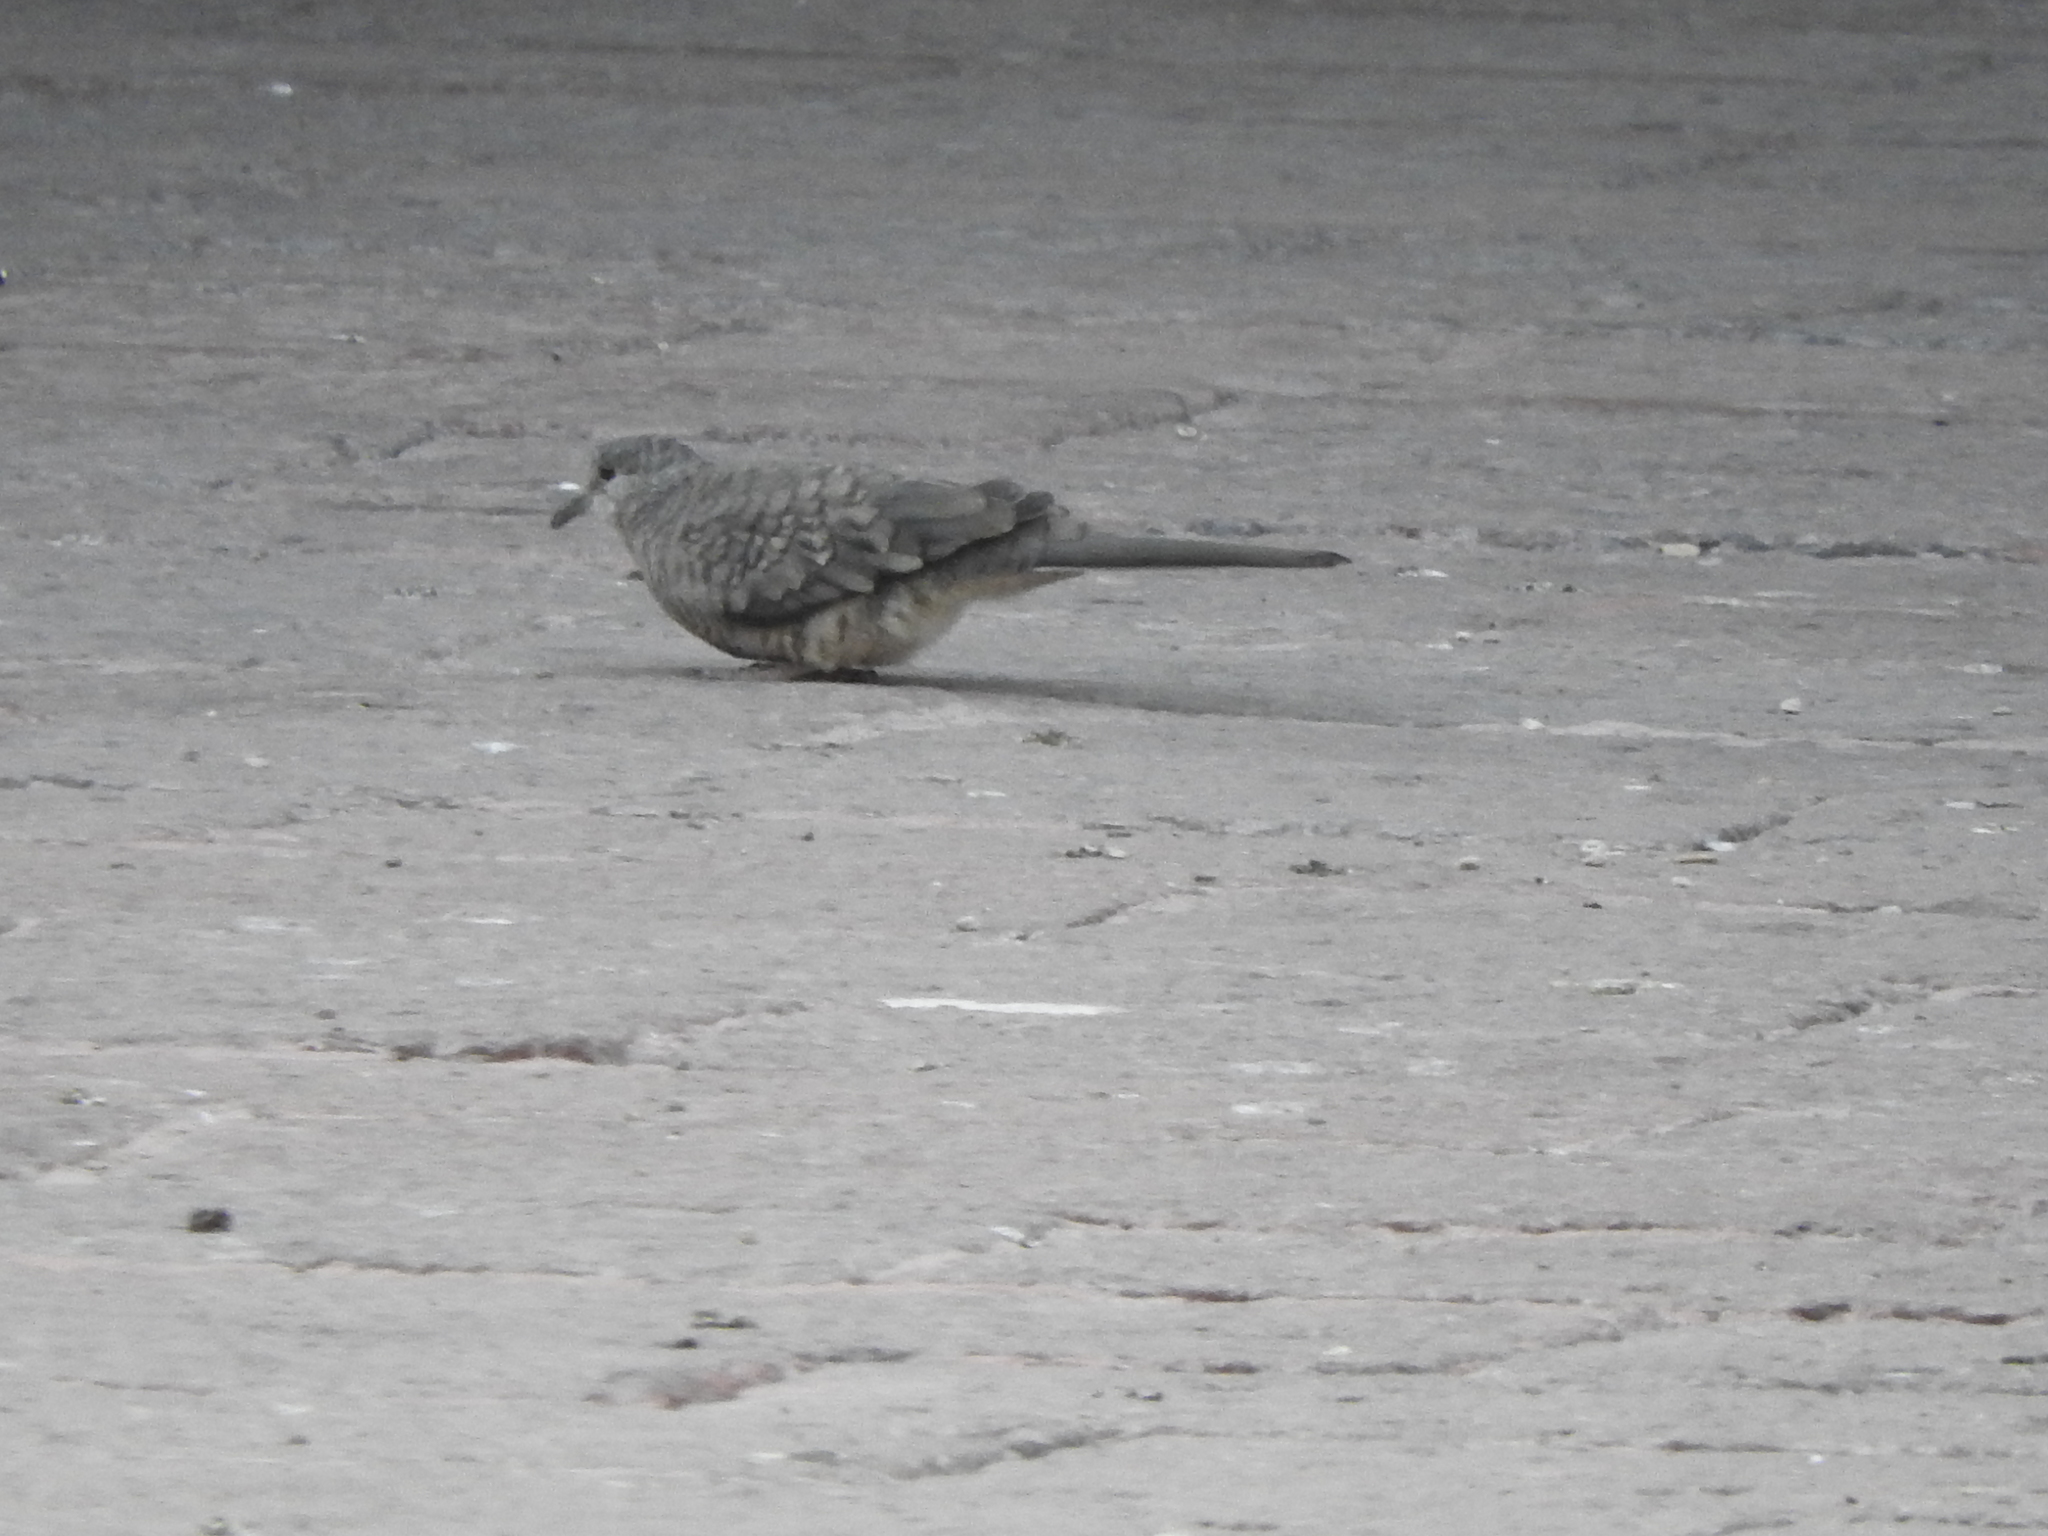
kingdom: Animalia
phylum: Chordata
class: Aves
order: Columbiformes
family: Columbidae
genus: Columbina
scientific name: Columbina inca
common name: Inca dove
